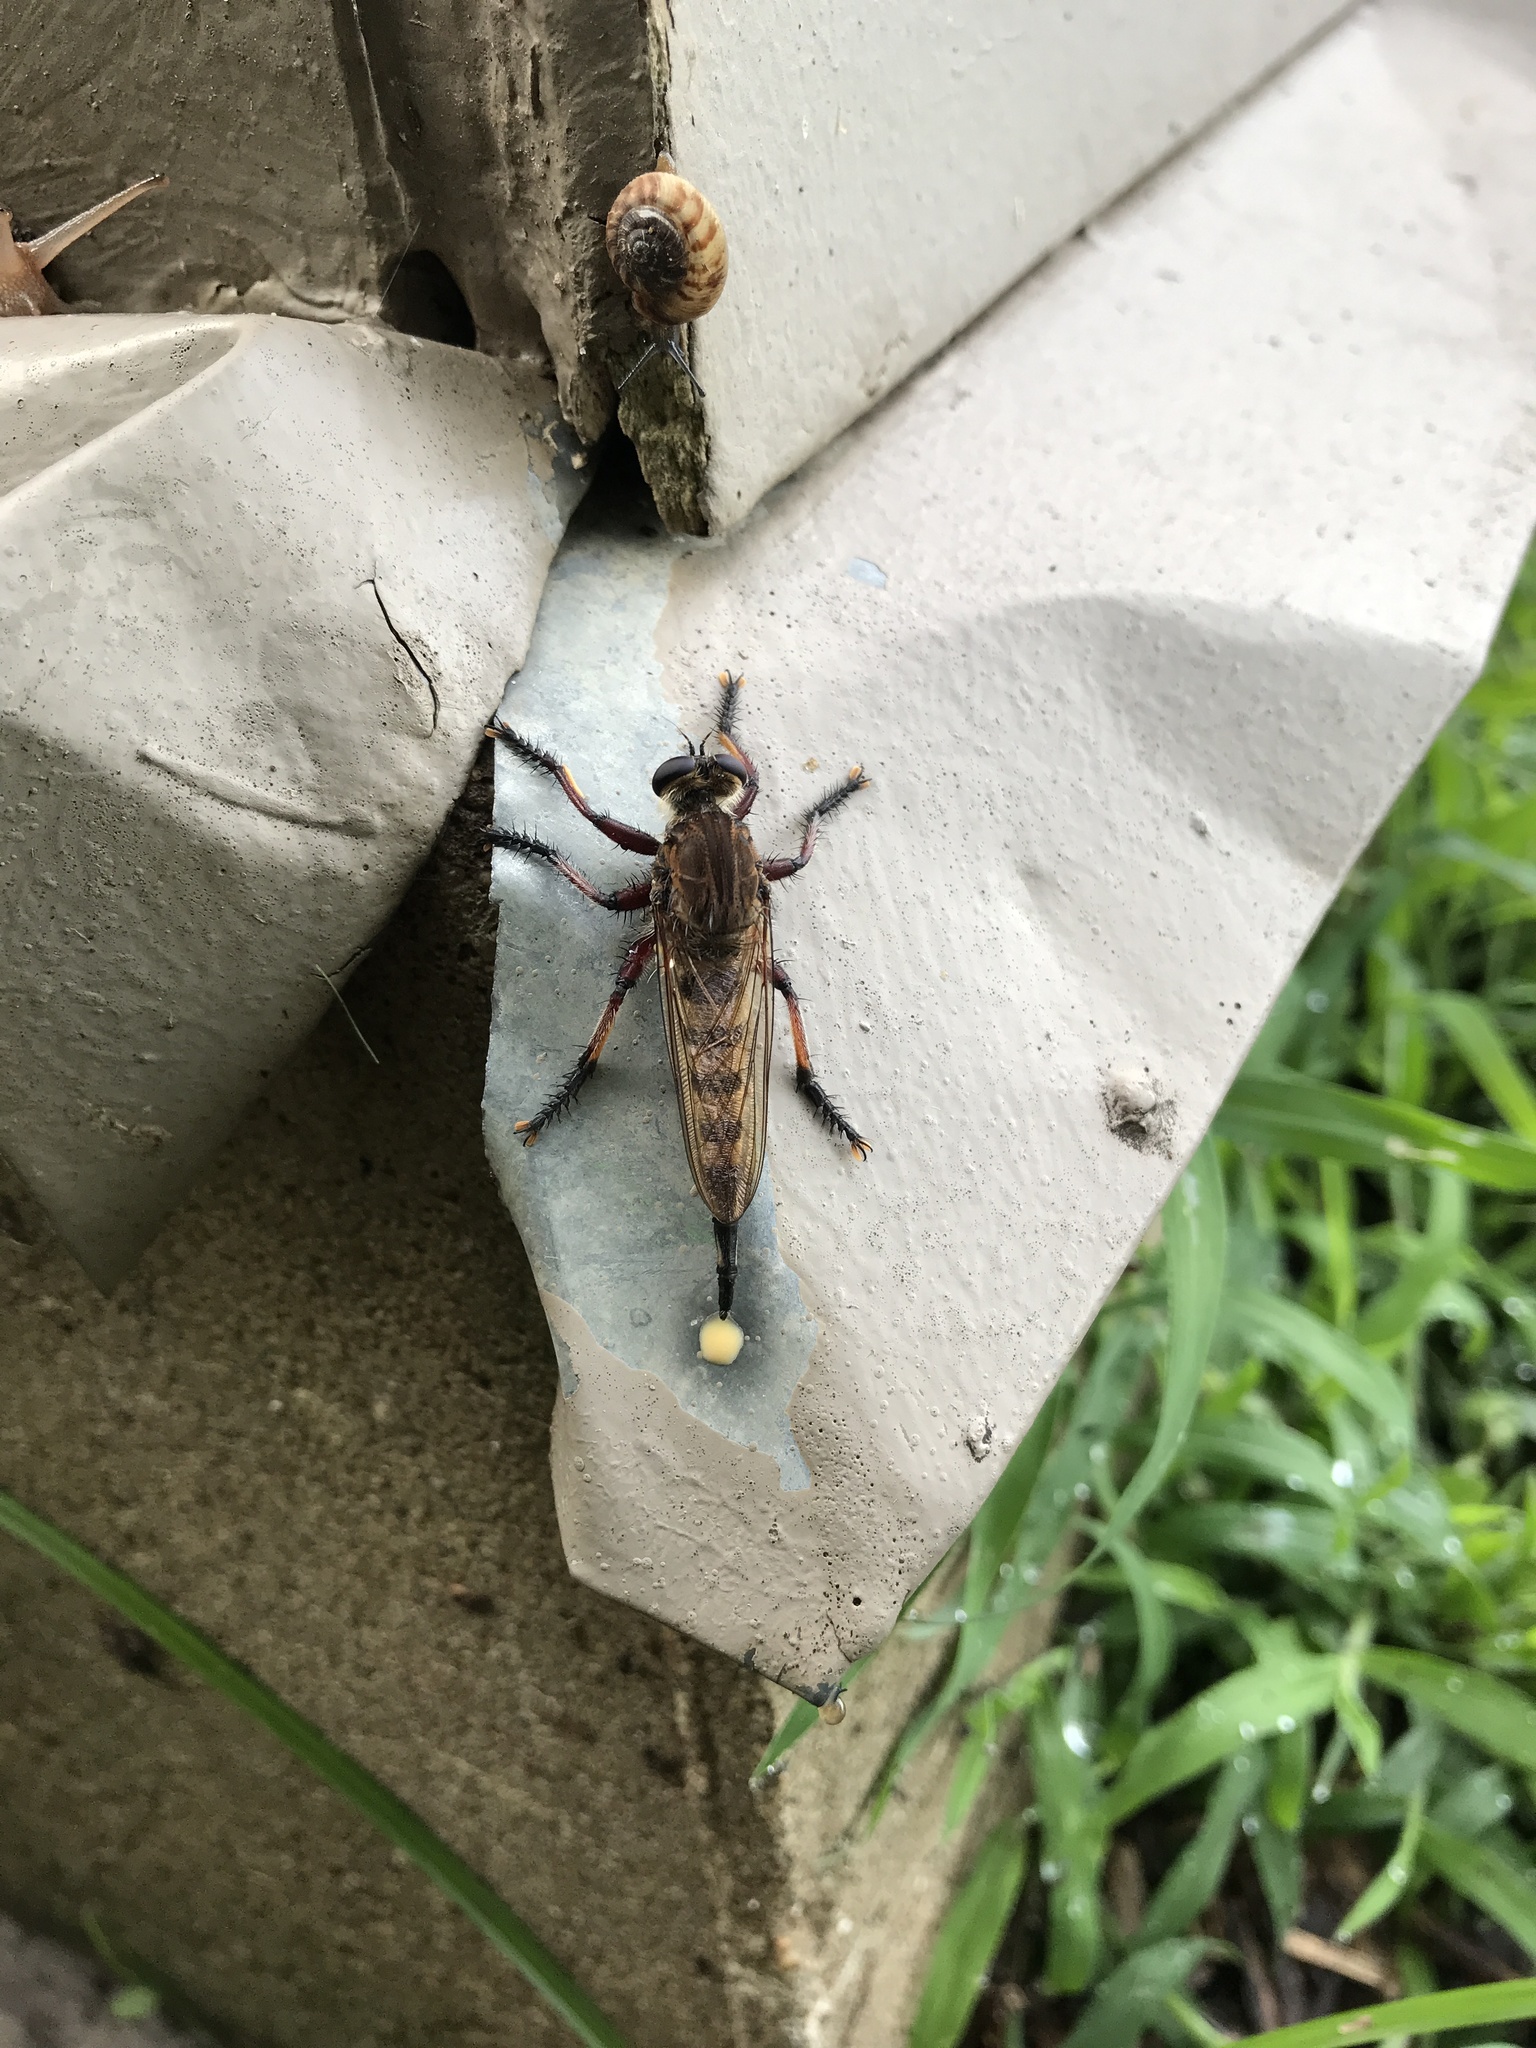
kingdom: Animalia
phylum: Arthropoda
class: Insecta
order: Diptera
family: Asilidae
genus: Promachus
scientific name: Promachus hinei
